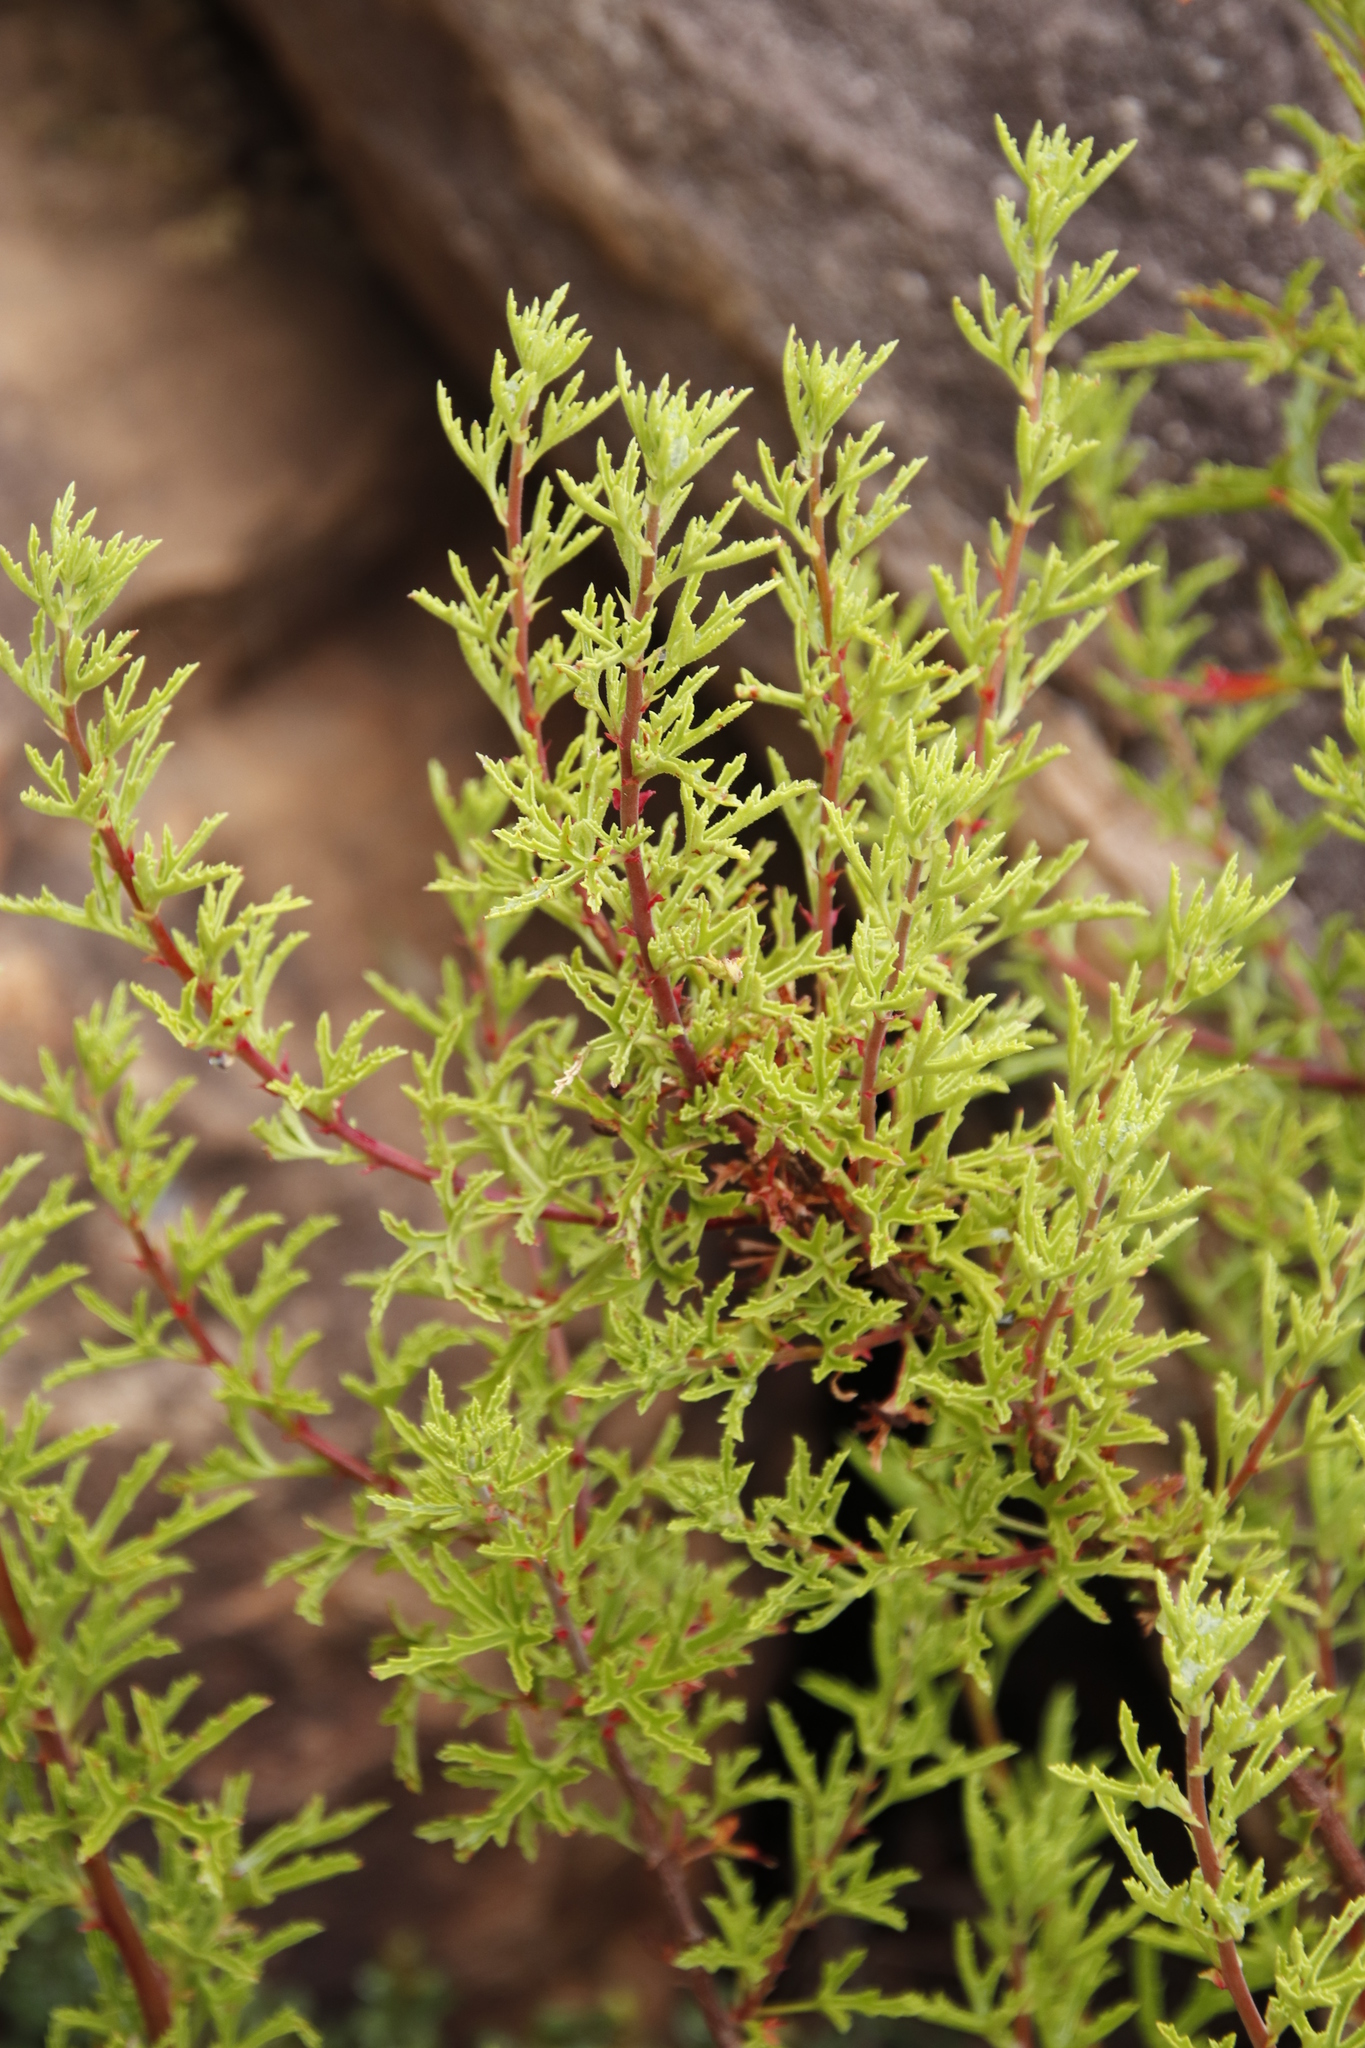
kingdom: Plantae
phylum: Tracheophyta
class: Magnoliopsida
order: Geraniales
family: Geraniaceae
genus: Pelargonium
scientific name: Pelargonium scabrum
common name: Apricot geranium
